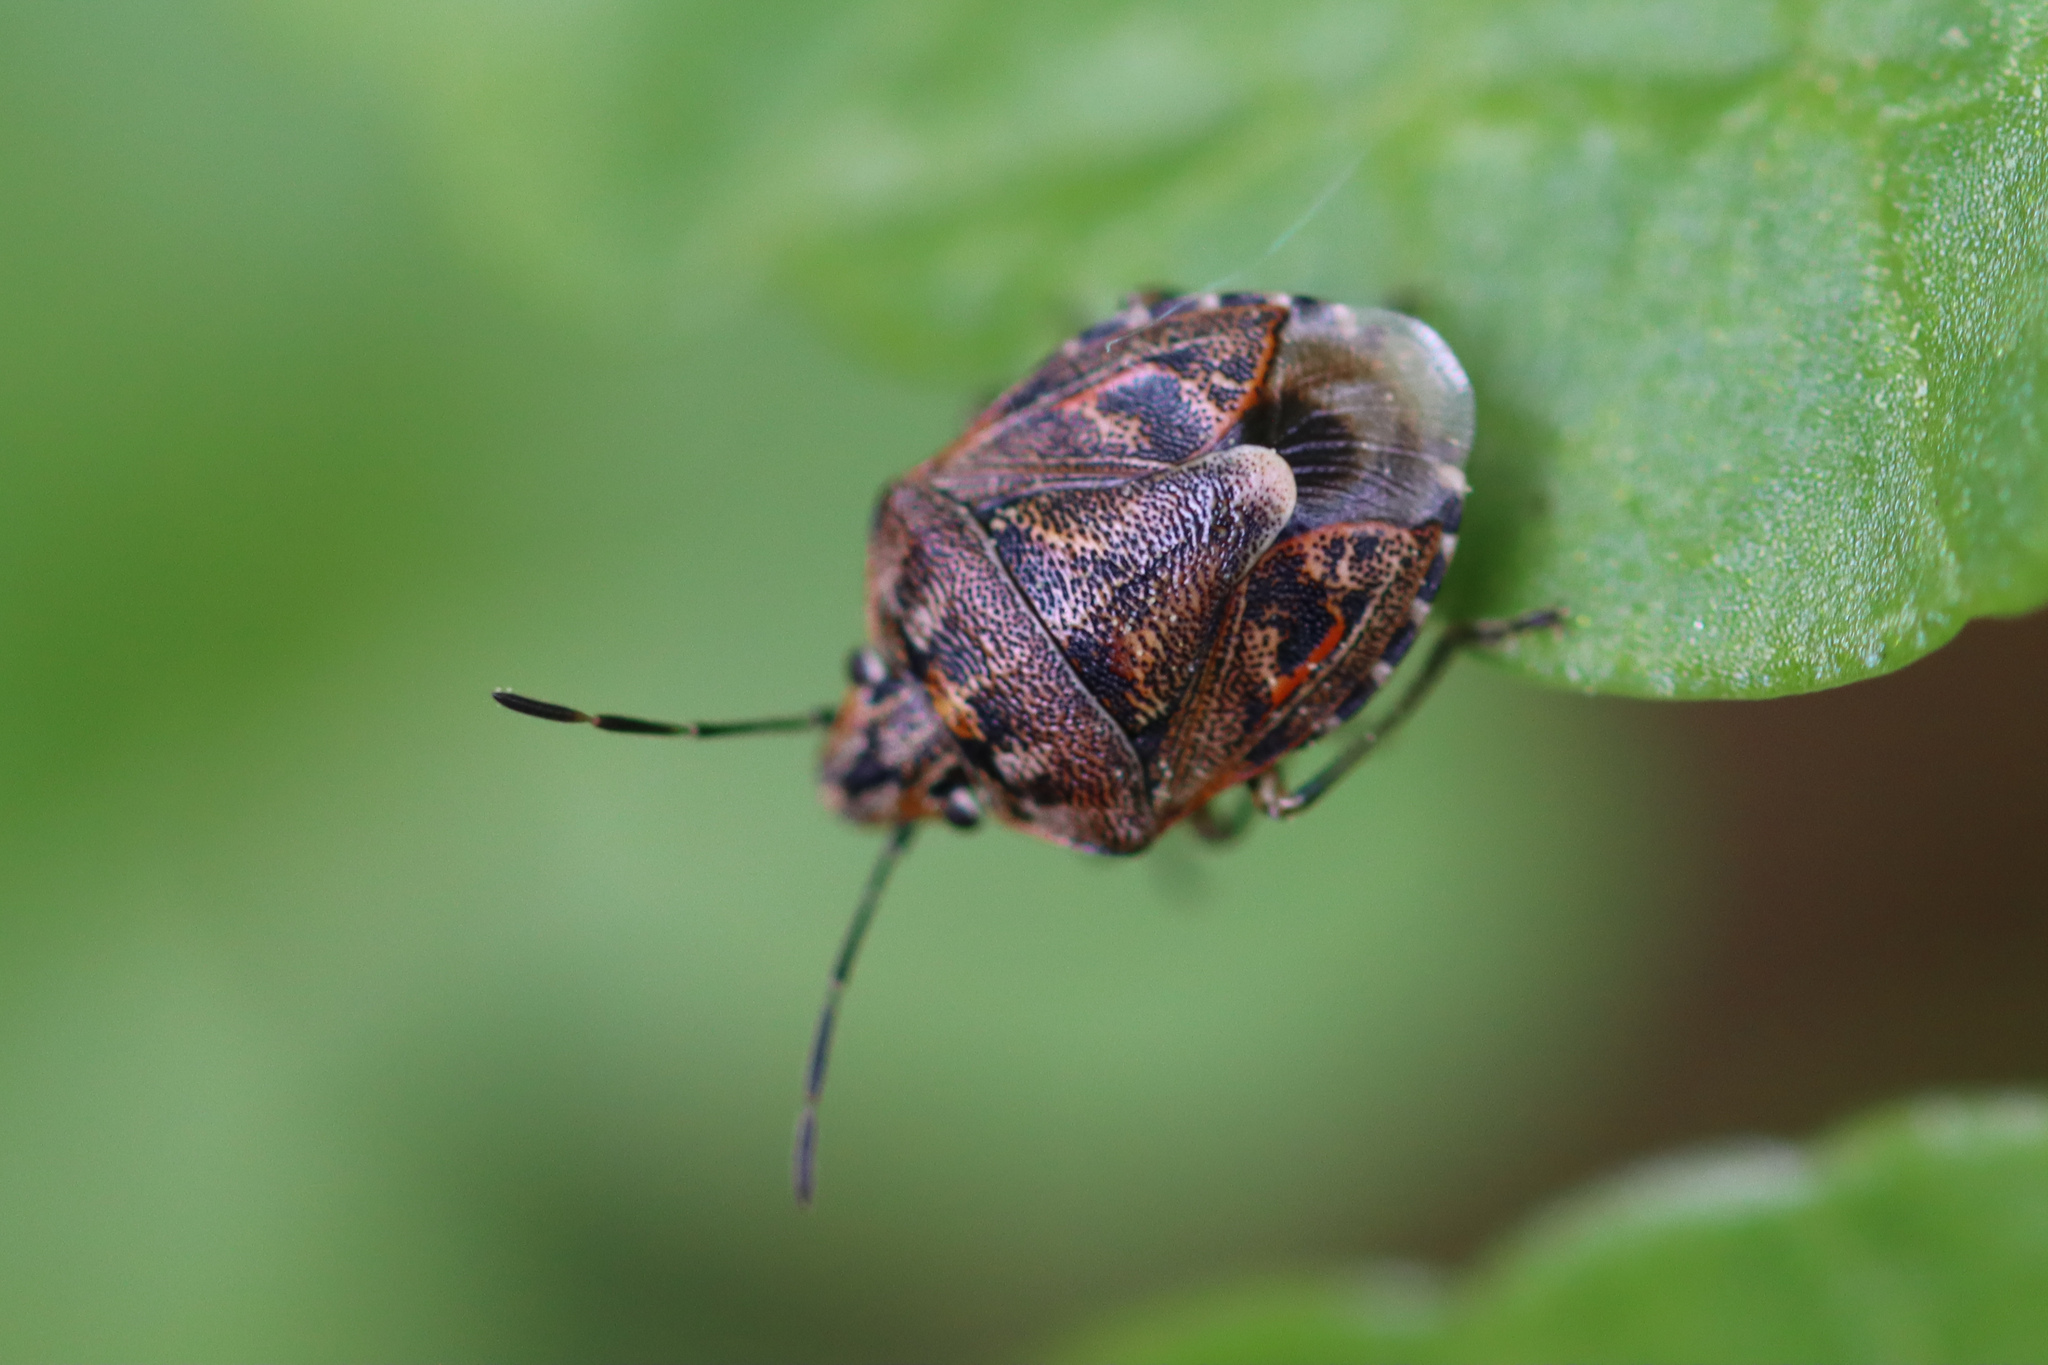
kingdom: Animalia
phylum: Arthropoda
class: Insecta
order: Hemiptera
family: Pentatomidae
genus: Holcogaster
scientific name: Holcogaster fibulata
